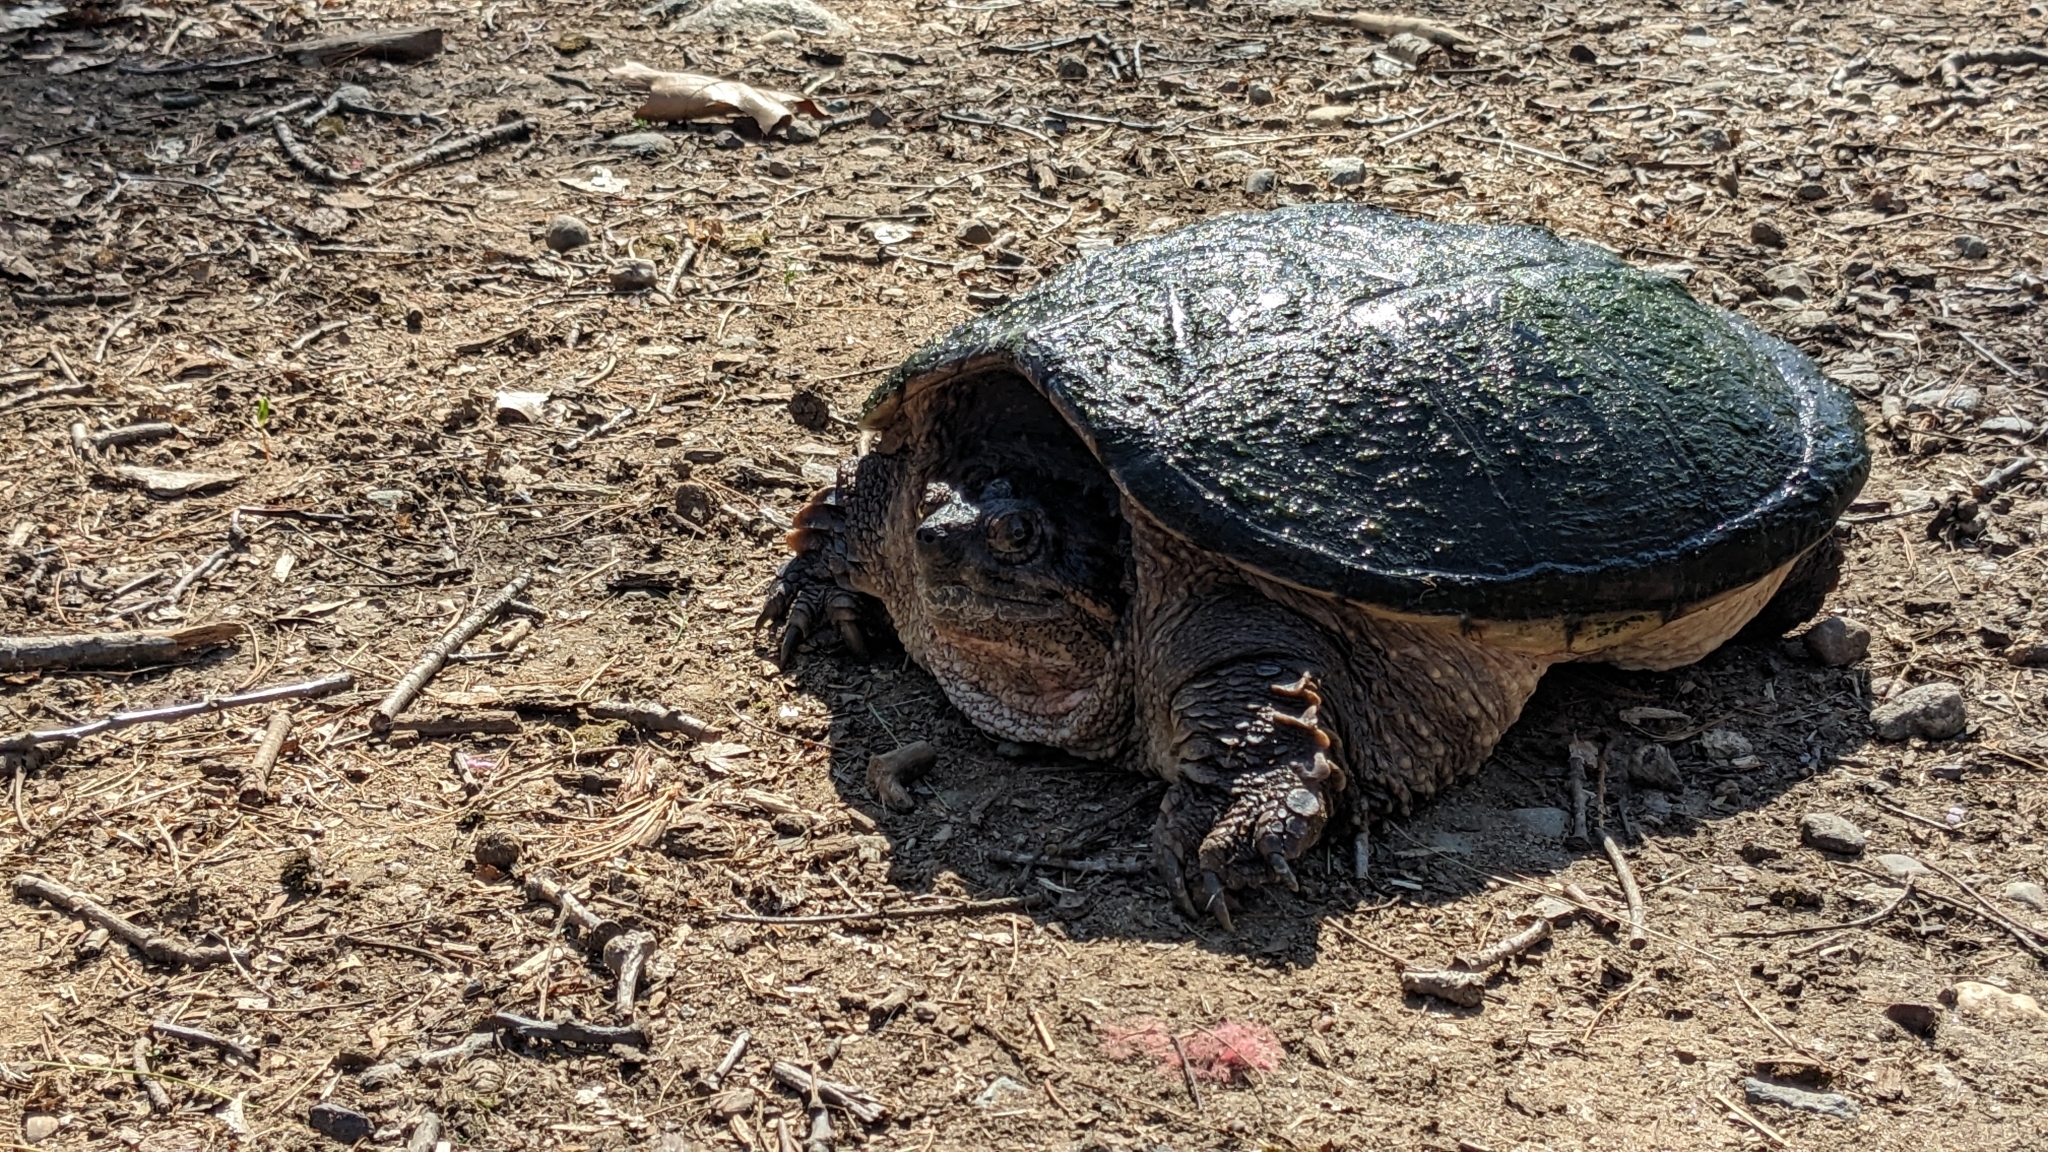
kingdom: Animalia
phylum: Chordata
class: Testudines
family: Chelydridae
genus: Chelydra
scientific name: Chelydra serpentina
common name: Common snapping turtle
